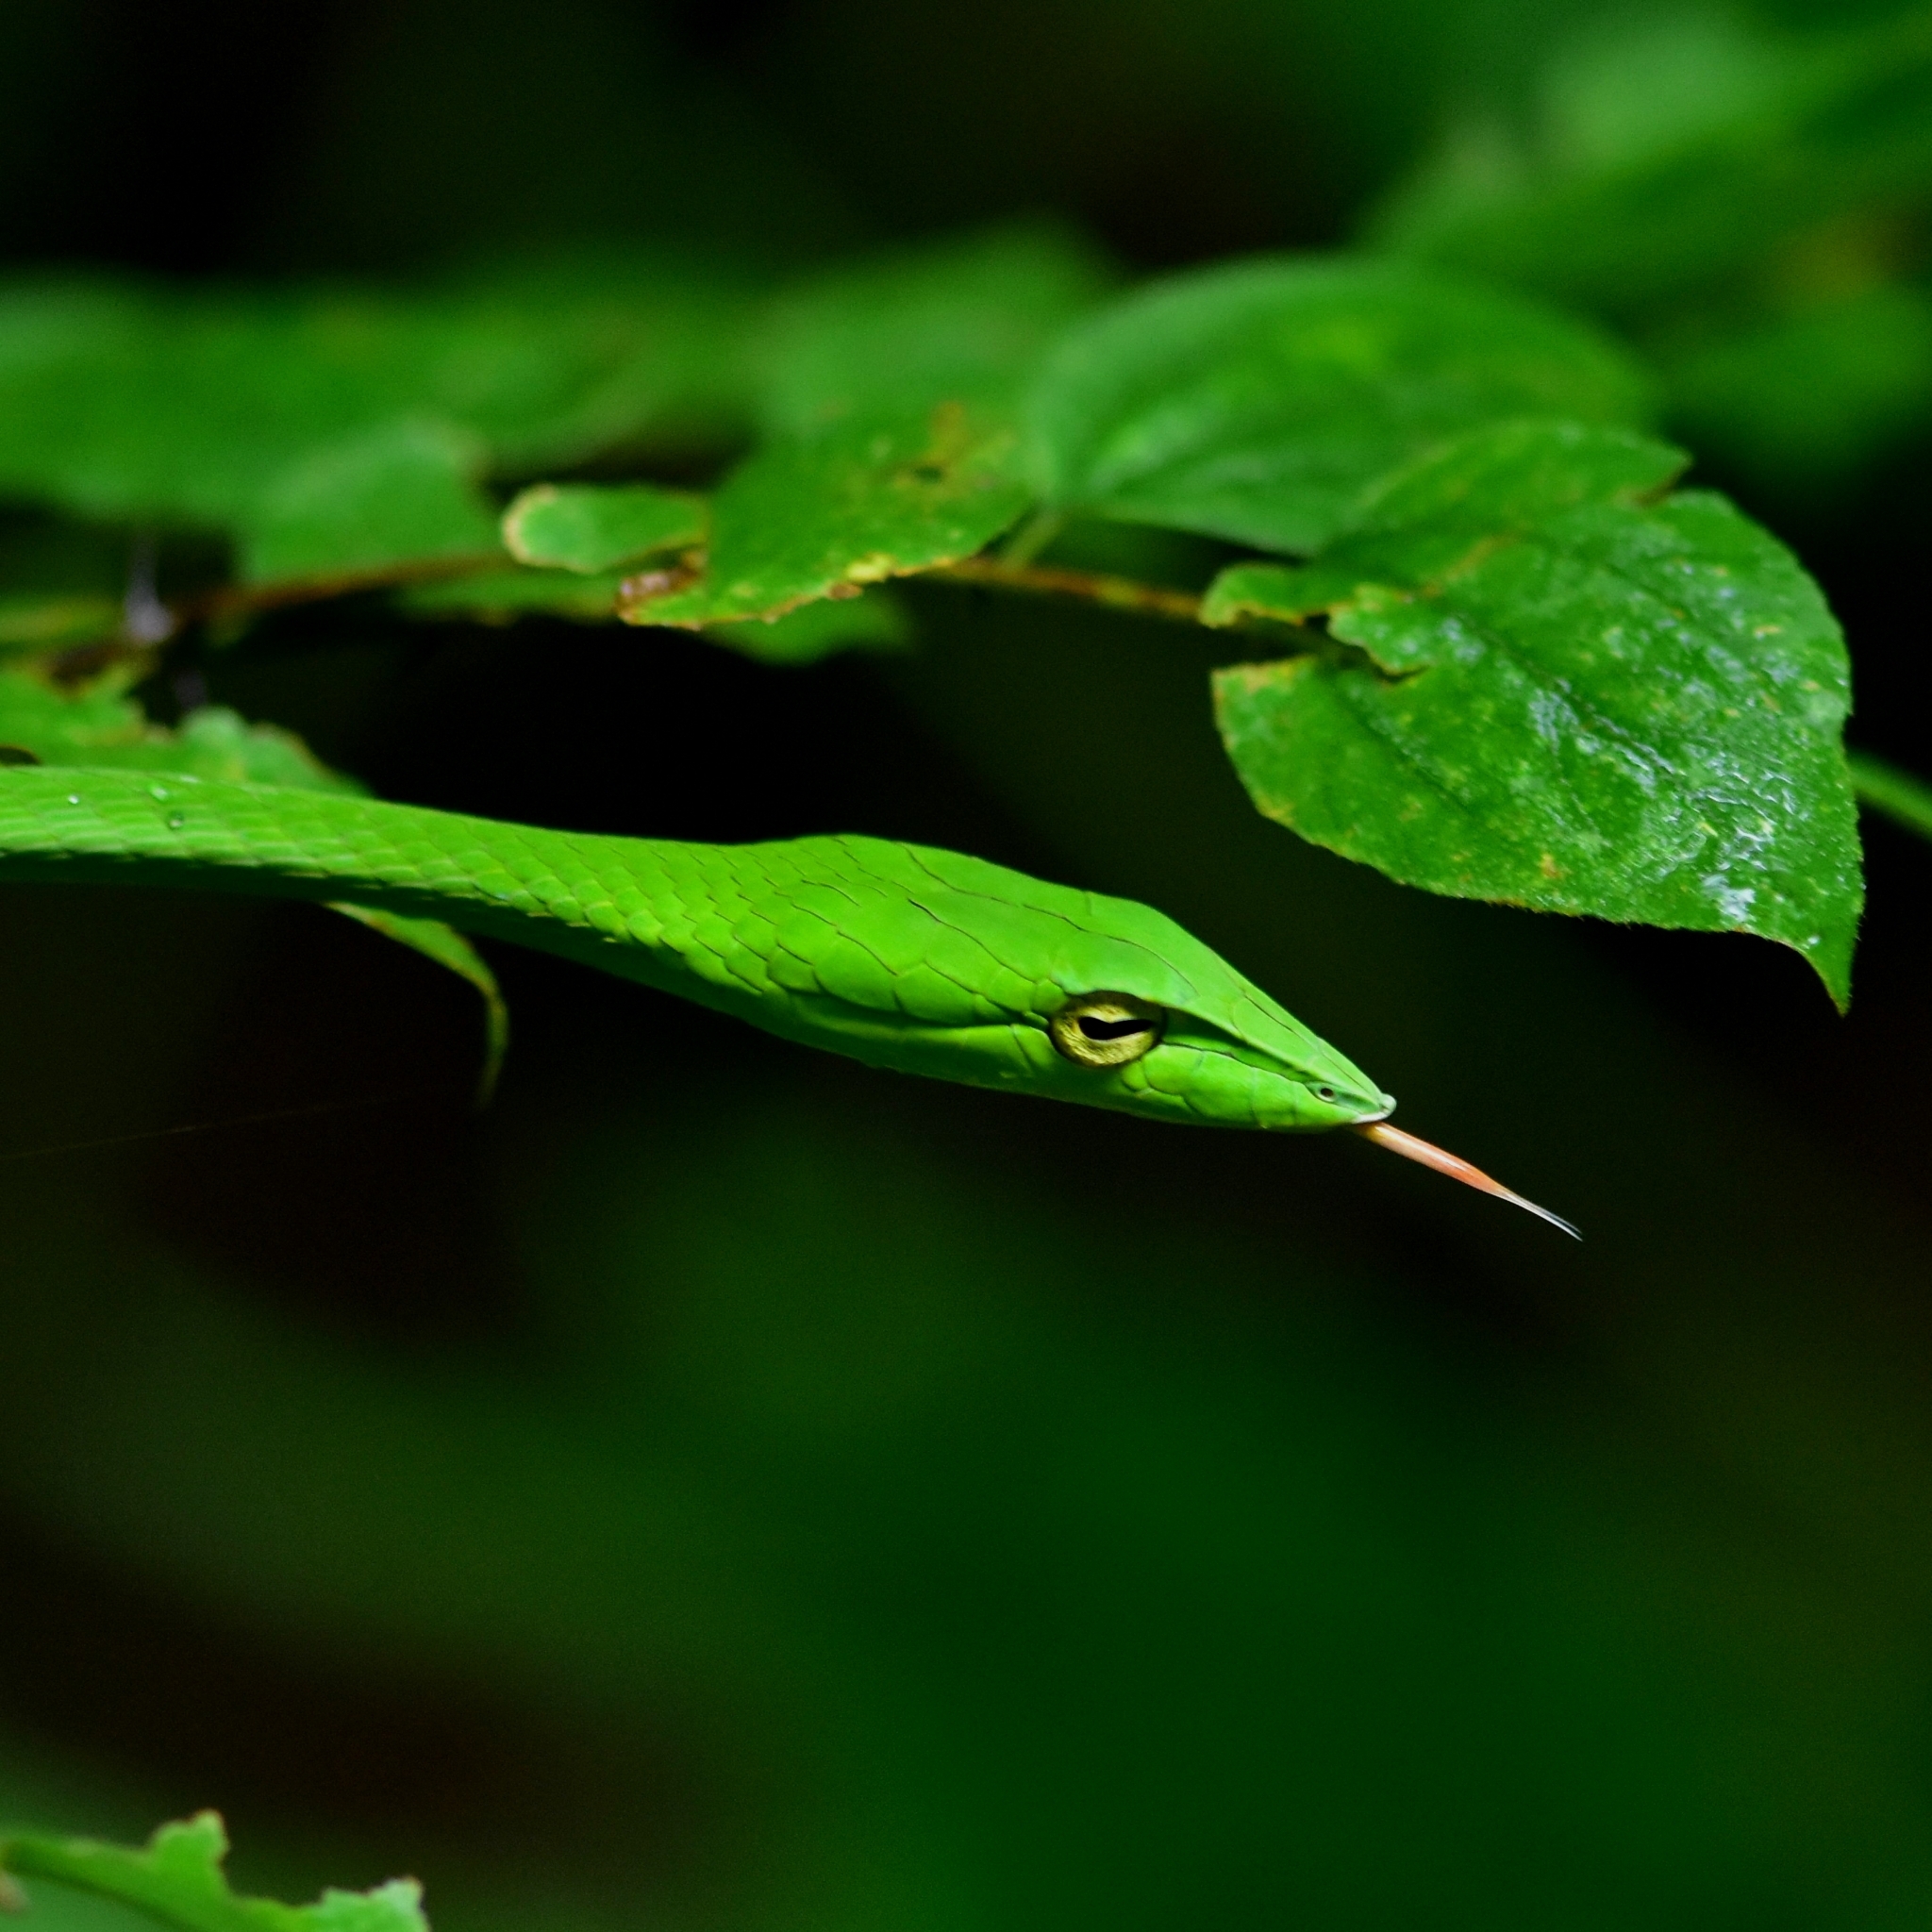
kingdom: Animalia
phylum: Chordata
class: Squamata
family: Colubridae
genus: Ahaetulla
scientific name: Ahaetulla malabarica
